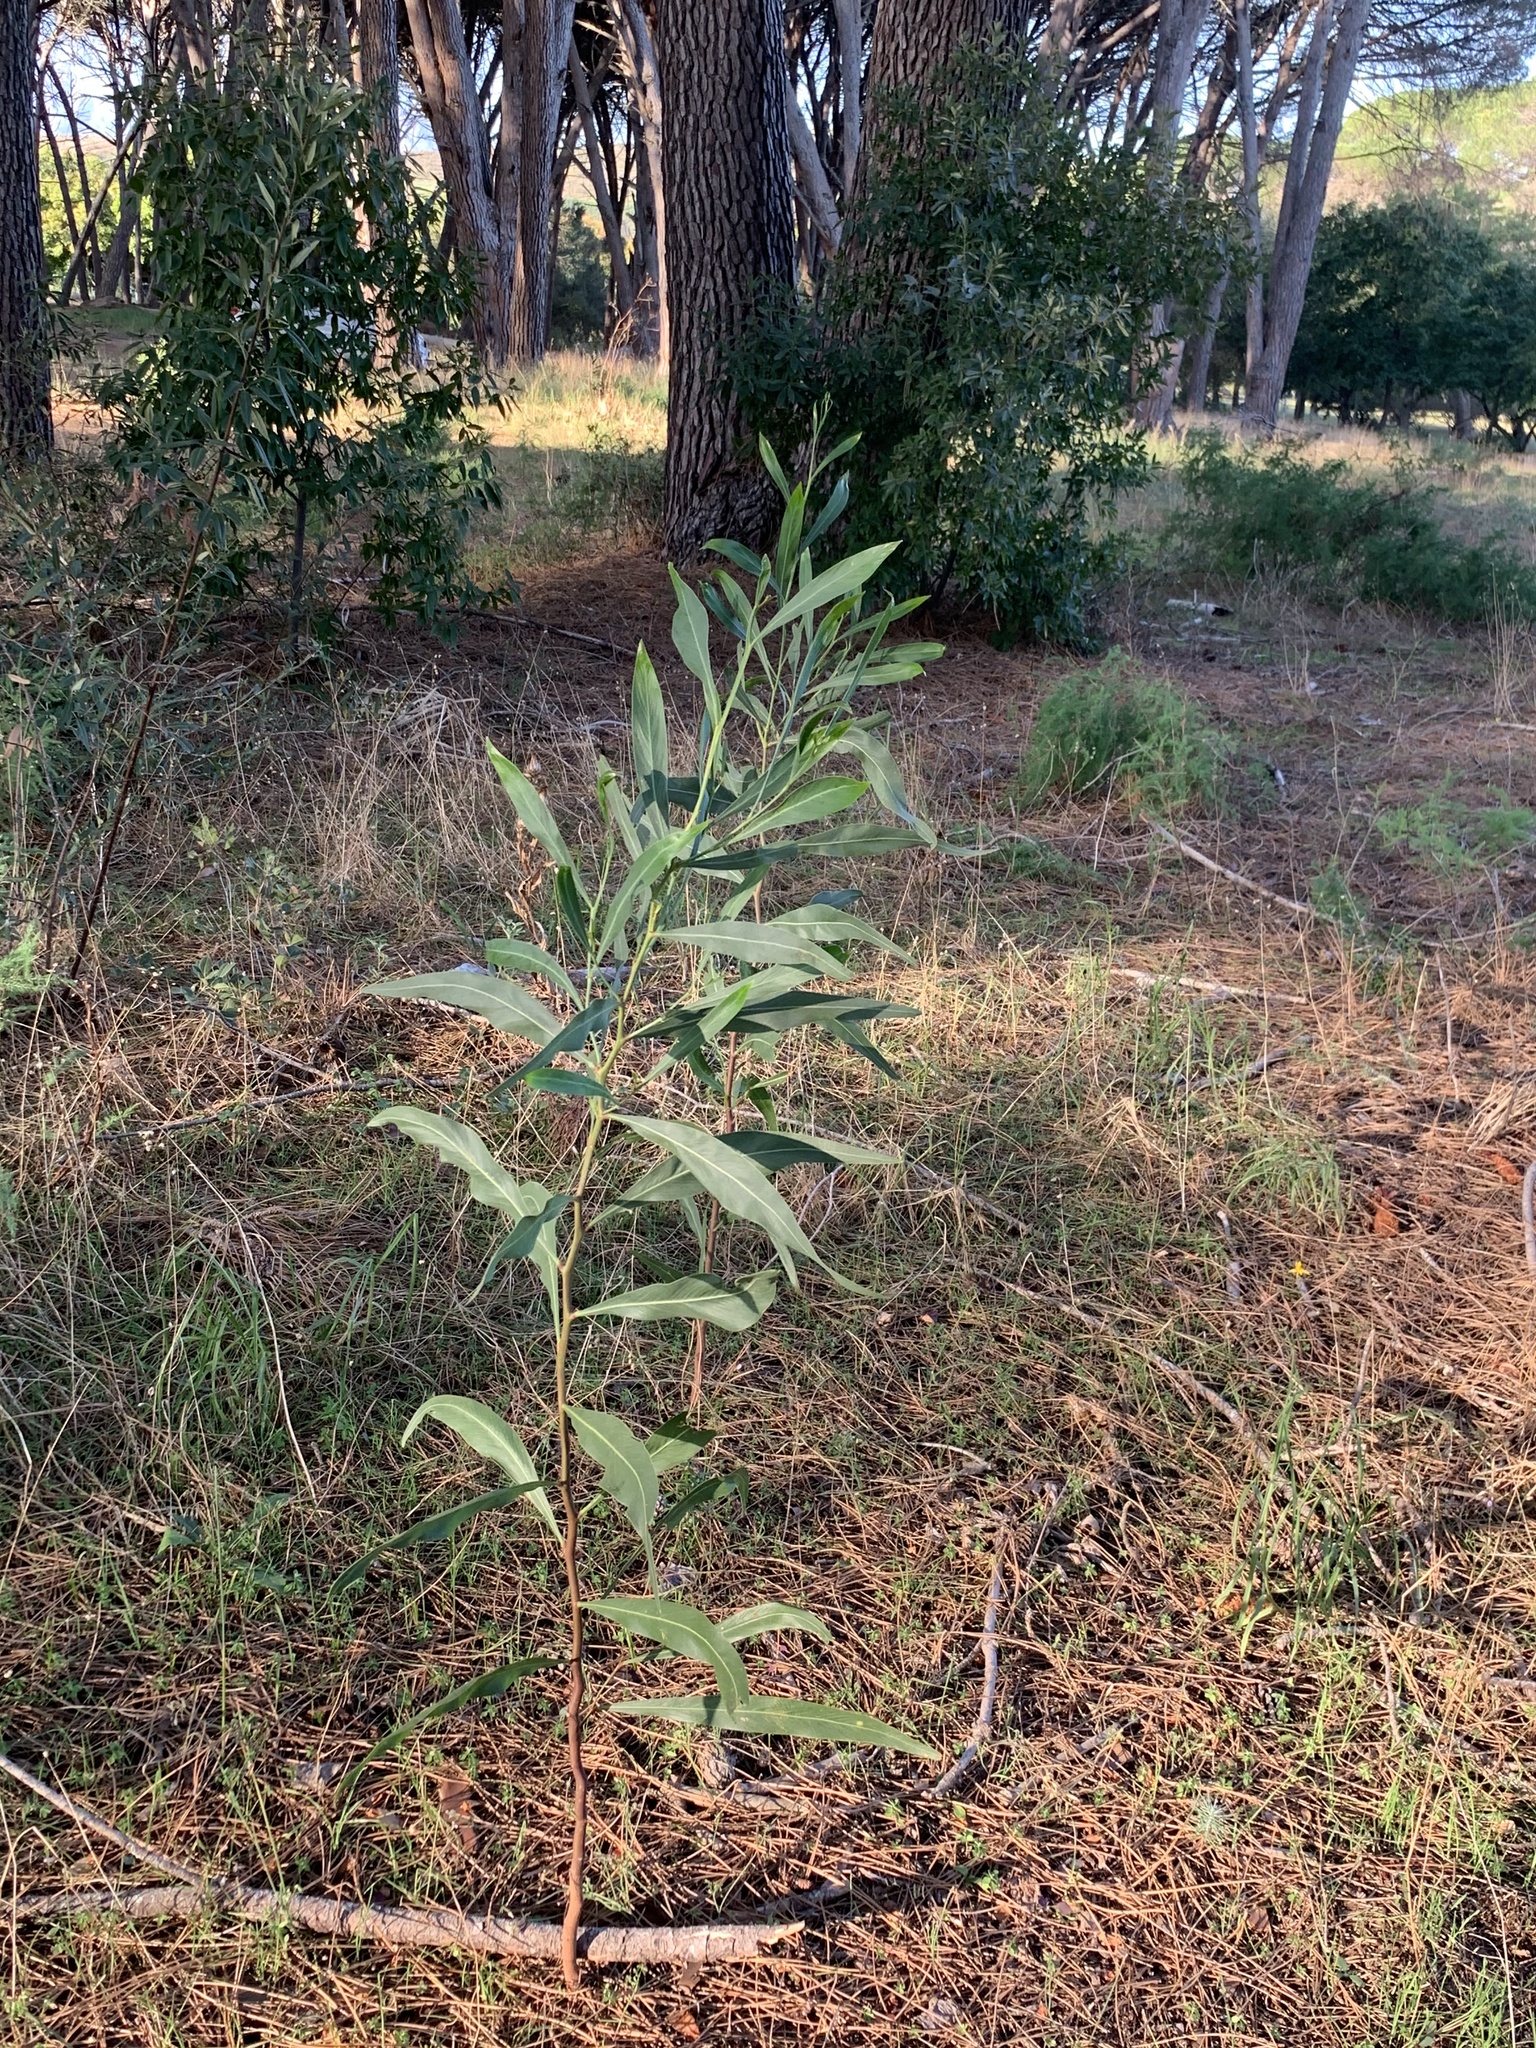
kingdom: Plantae
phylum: Tracheophyta
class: Magnoliopsida
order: Fabales
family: Fabaceae
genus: Acacia
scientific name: Acacia saligna
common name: Orange wattle
